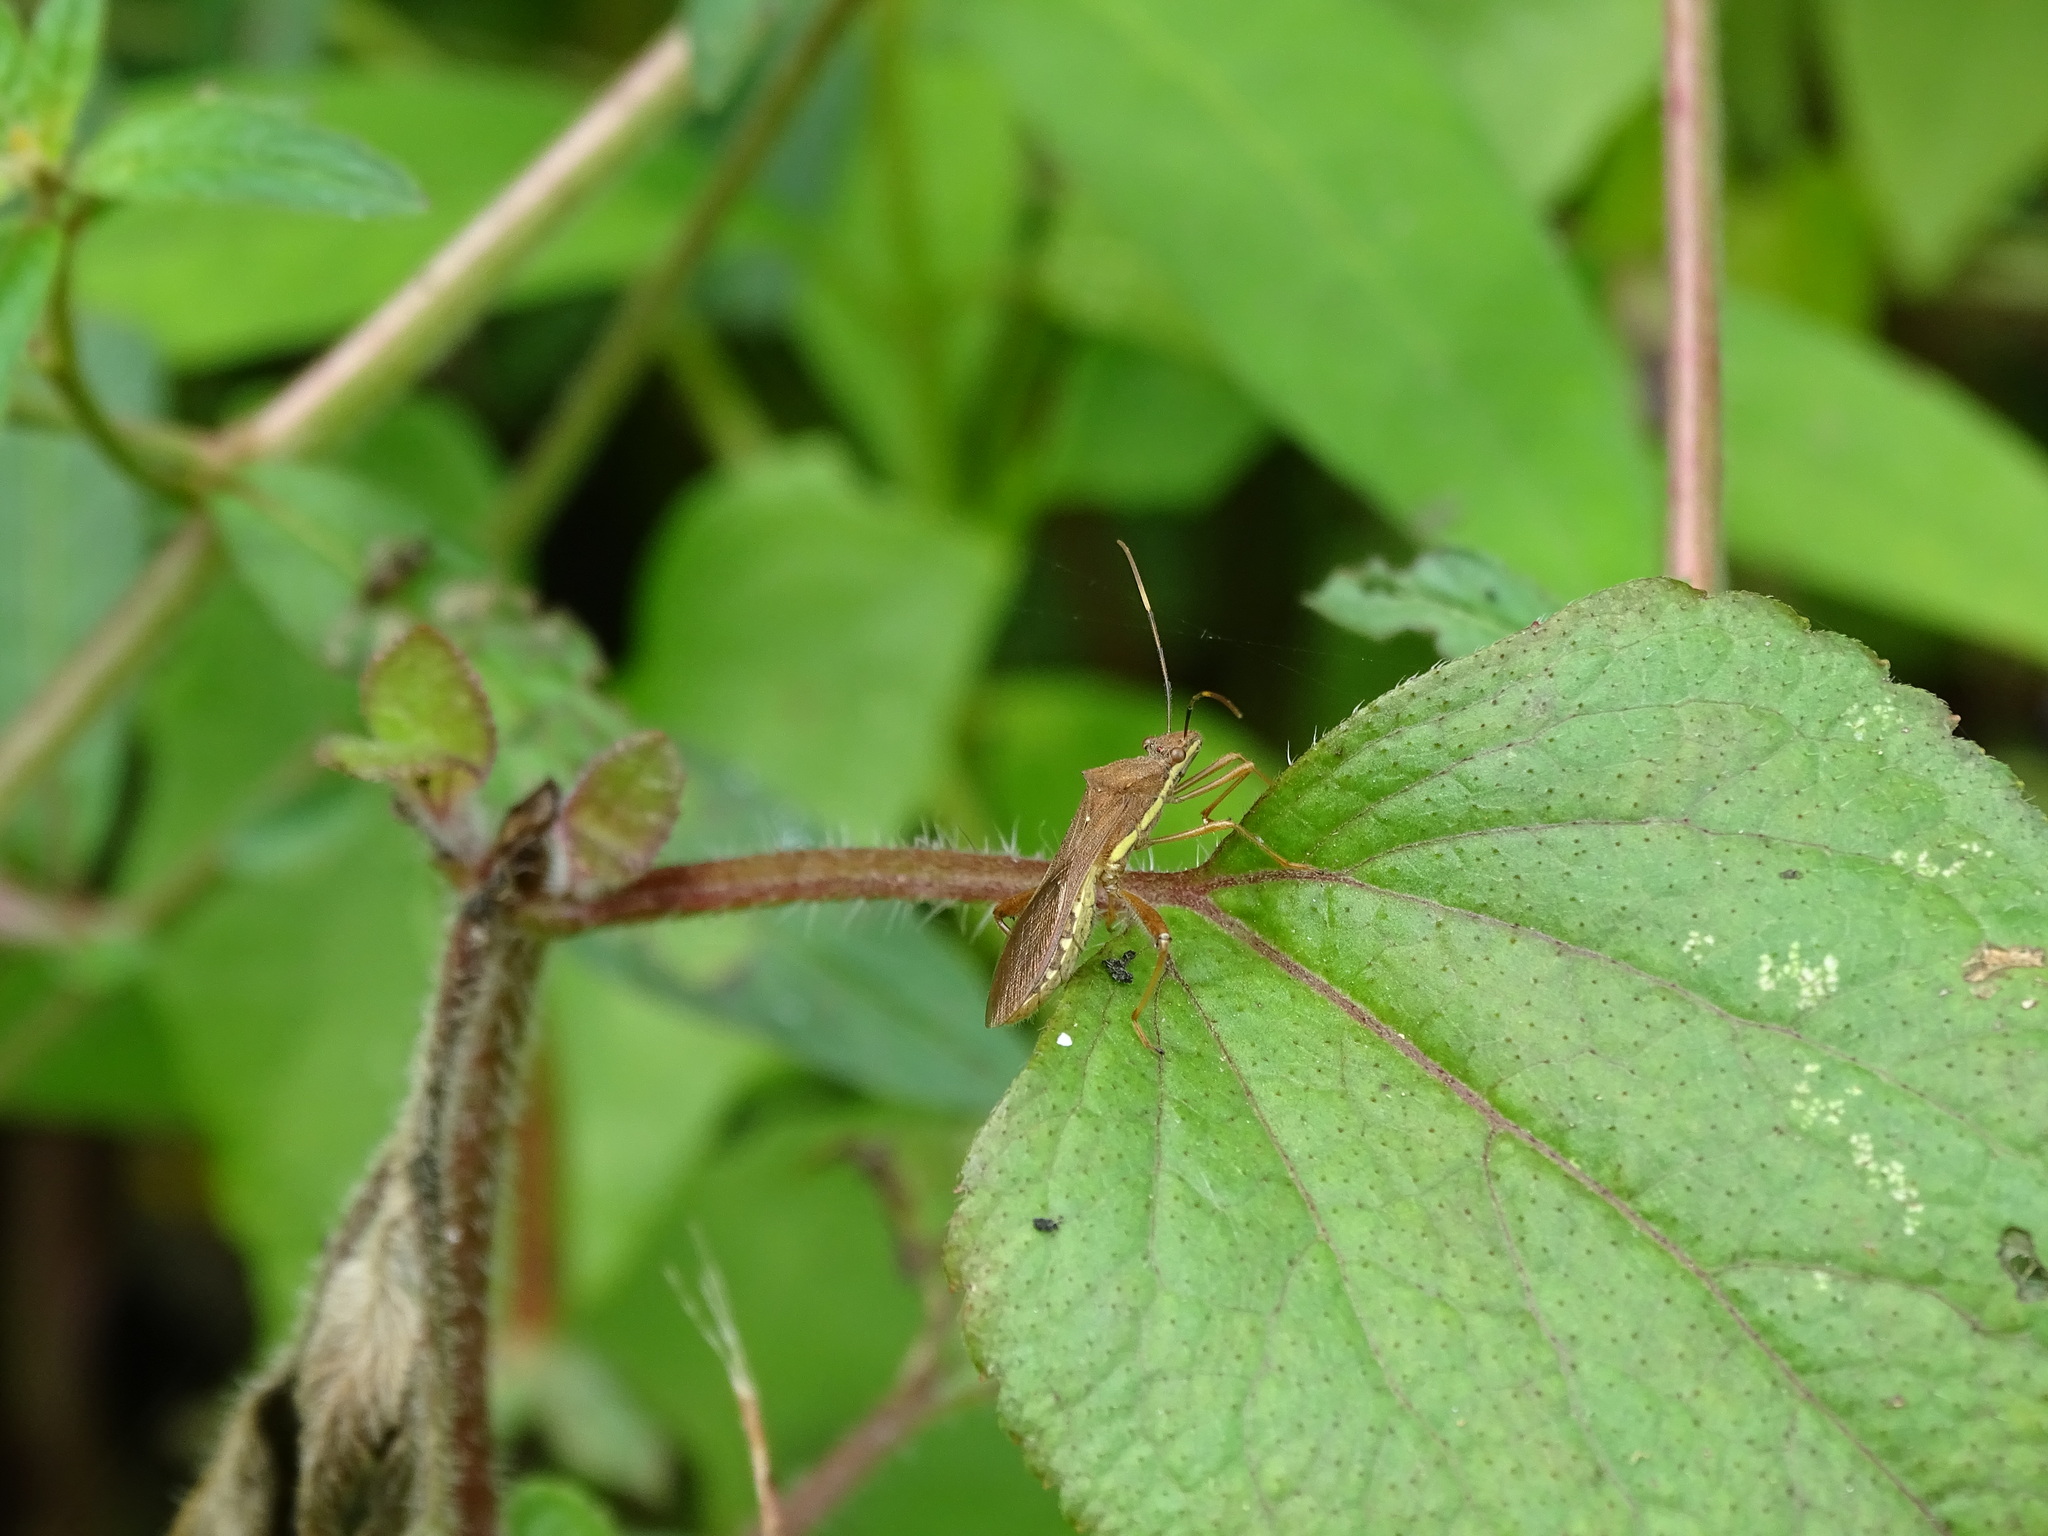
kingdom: Animalia
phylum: Arthropoda
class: Insecta
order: Hemiptera
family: Alydidae
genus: Riptortus
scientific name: Riptortus linearis
